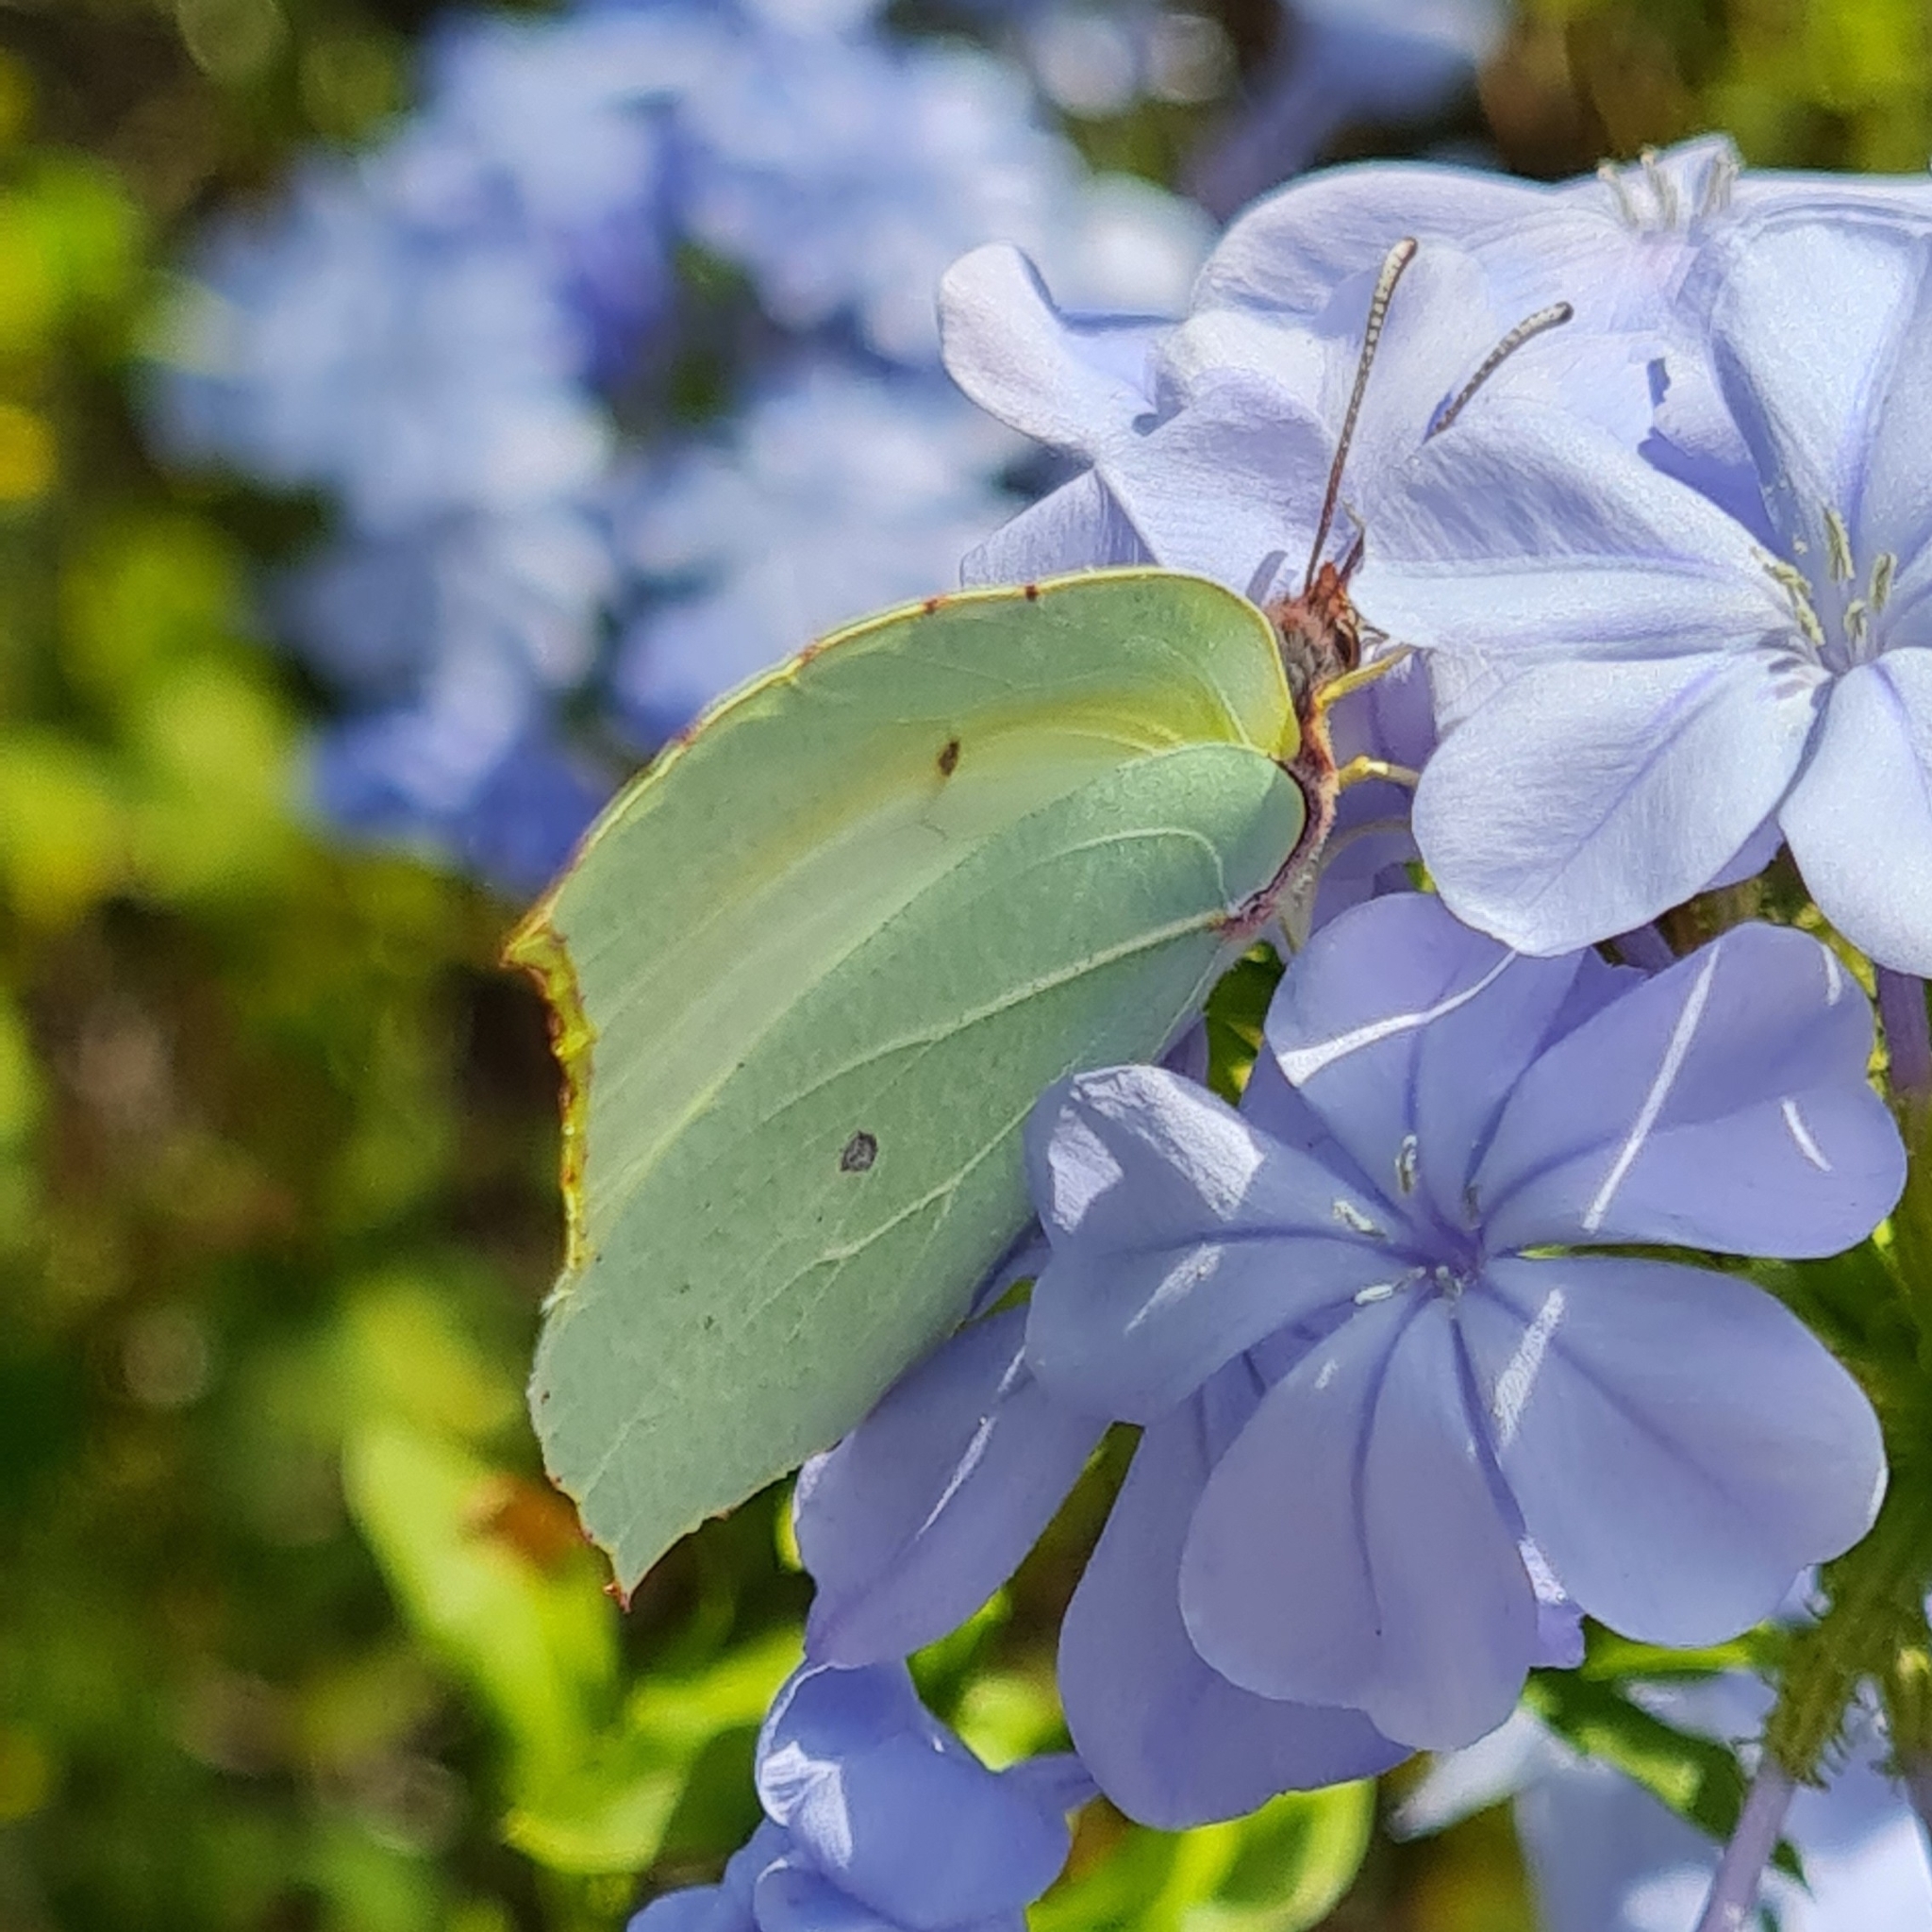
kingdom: Animalia
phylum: Arthropoda
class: Insecta
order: Lepidoptera
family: Pieridae
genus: Gonepteryx
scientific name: Gonepteryx rhamni
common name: Brimstone
